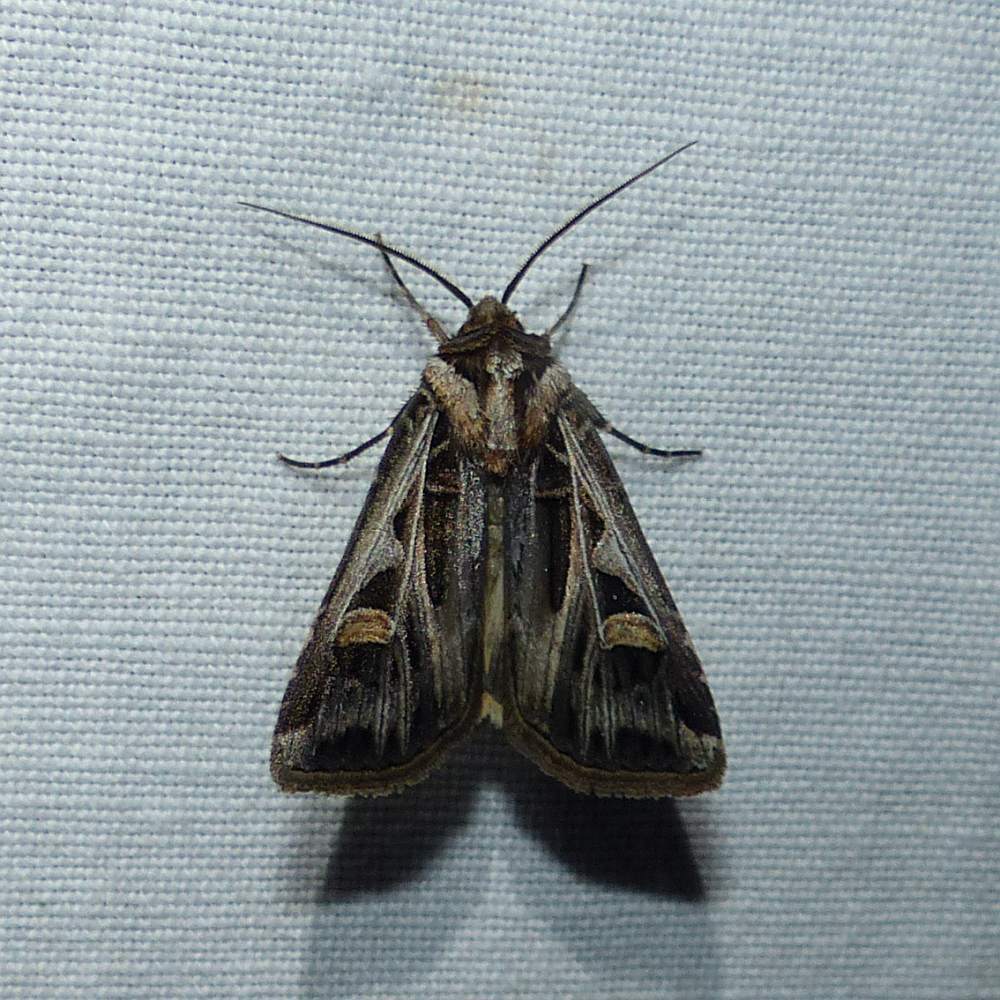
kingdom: Animalia
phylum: Arthropoda
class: Insecta
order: Lepidoptera
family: Noctuidae
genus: Feltia
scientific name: Feltia jaculifera
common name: Dingy cutworm moth
